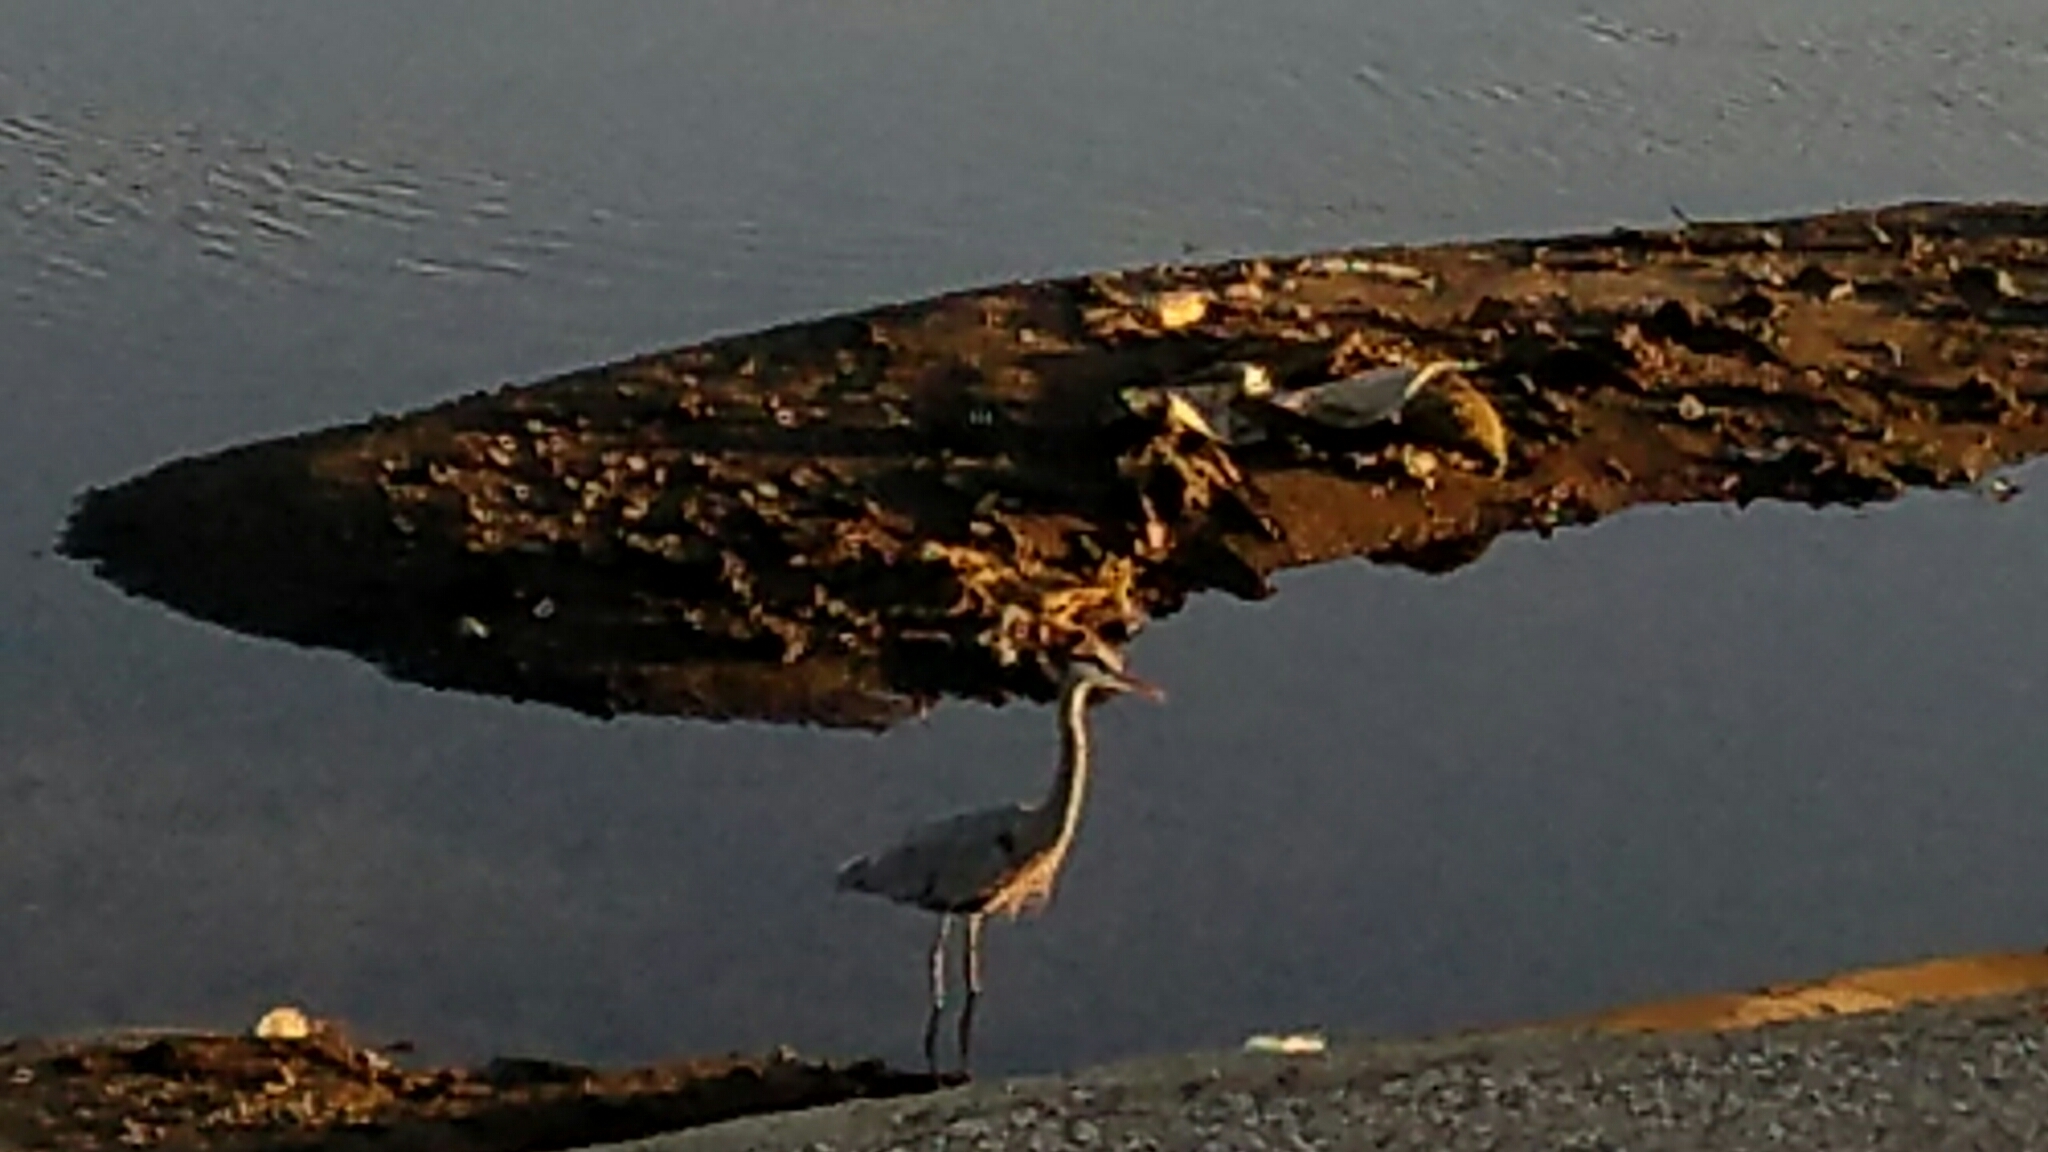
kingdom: Animalia
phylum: Chordata
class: Aves
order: Pelecaniformes
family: Ardeidae
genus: Ardea
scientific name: Ardea herodias
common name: Great blue heron
